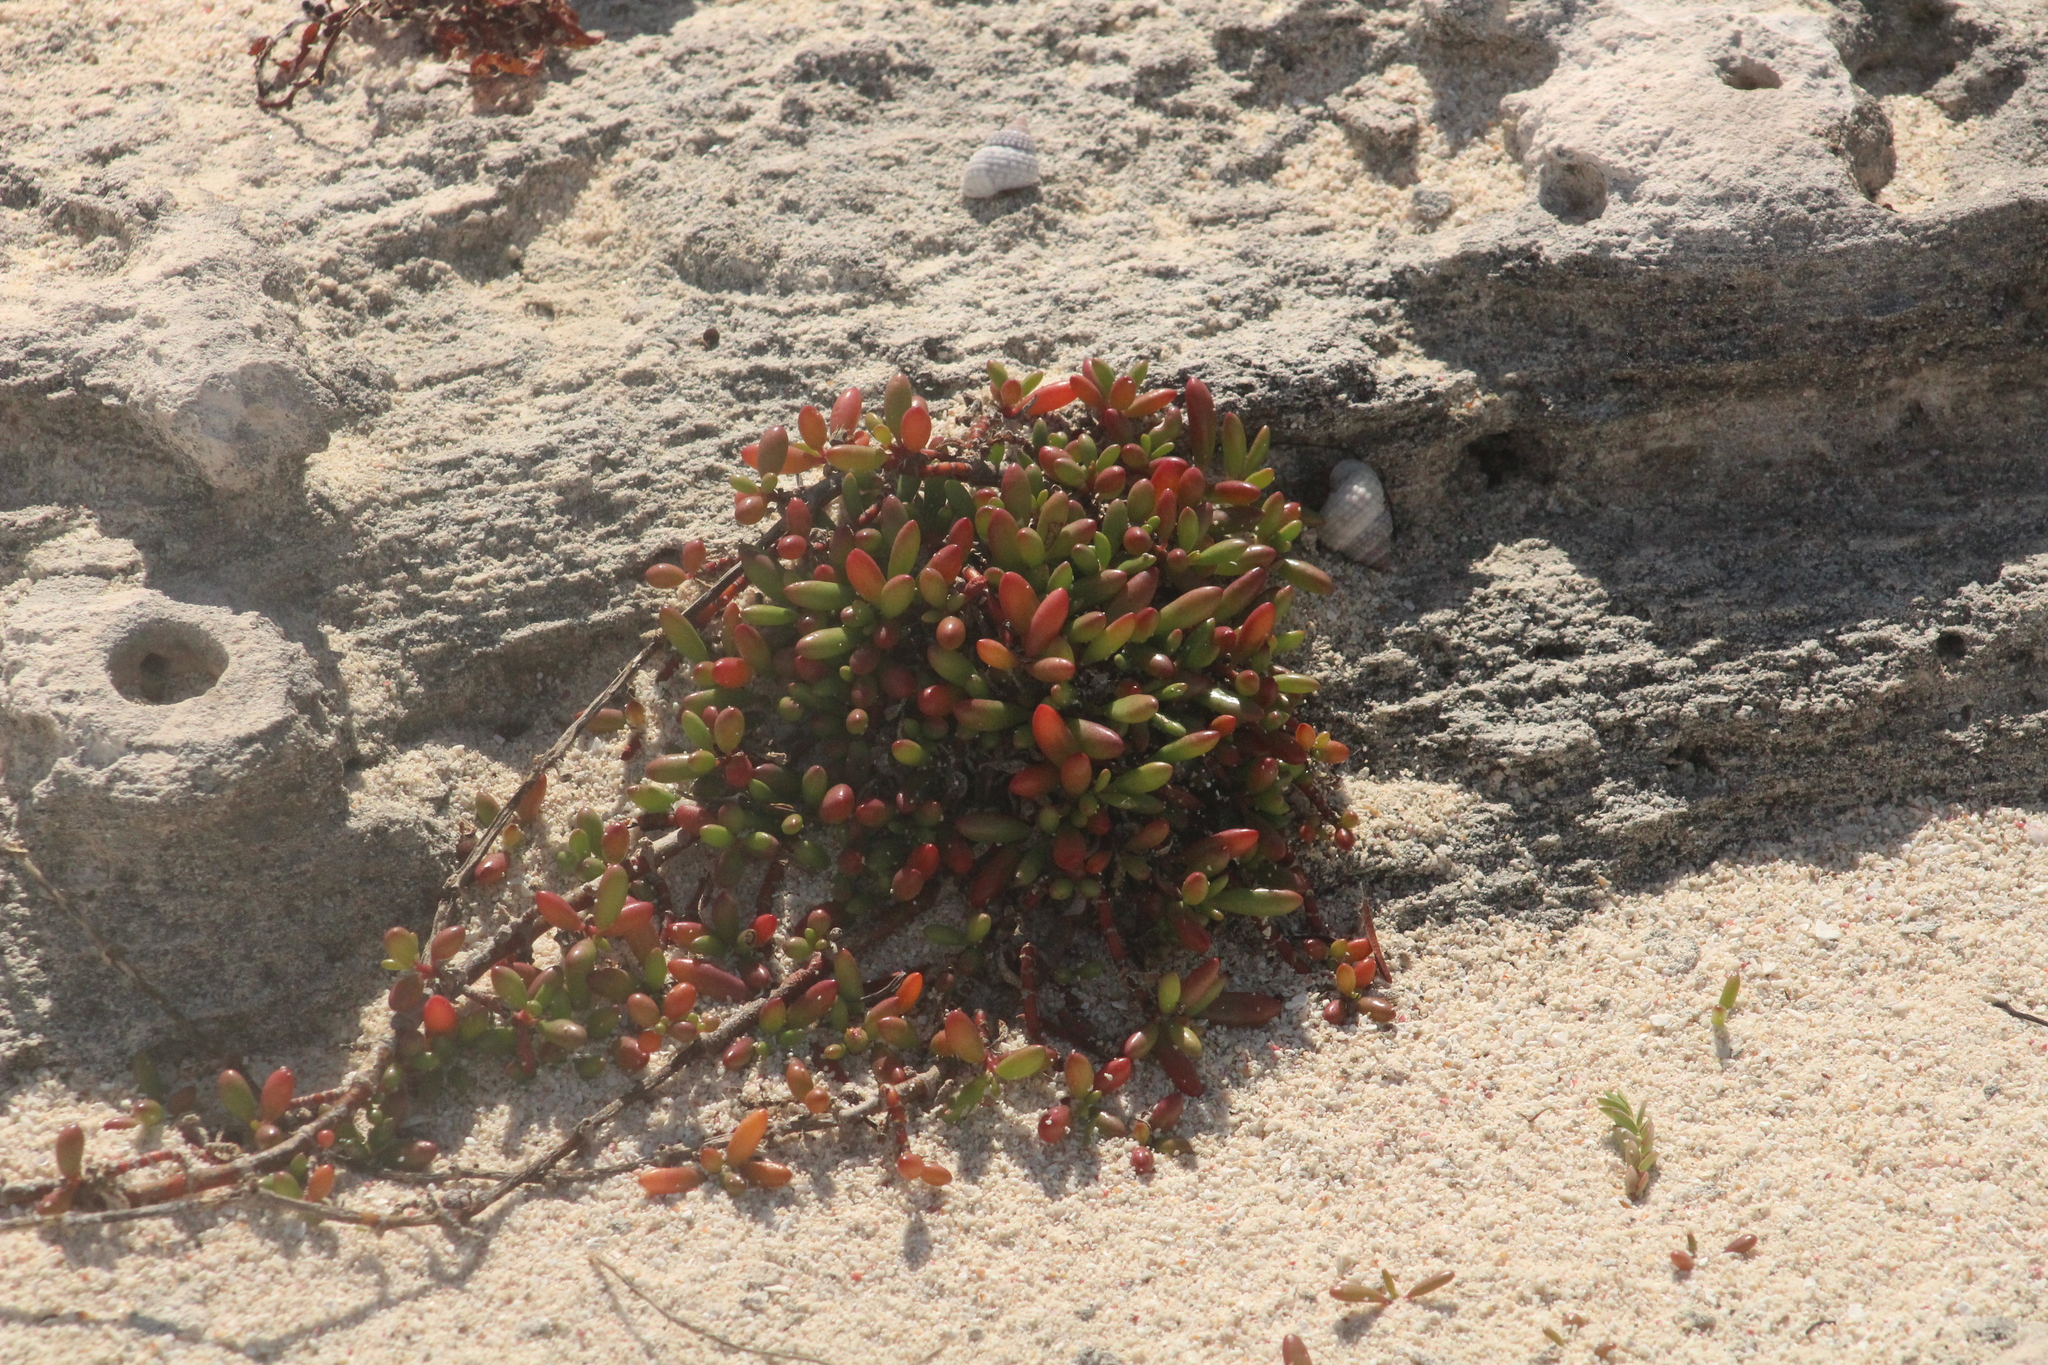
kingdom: Plantae
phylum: Tracheophyta
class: Magnoliopsida
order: Caryophyllales
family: Aizoaceae
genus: Sesuvium
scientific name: Sesuvium portulacastrum
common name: Sea-purslane
